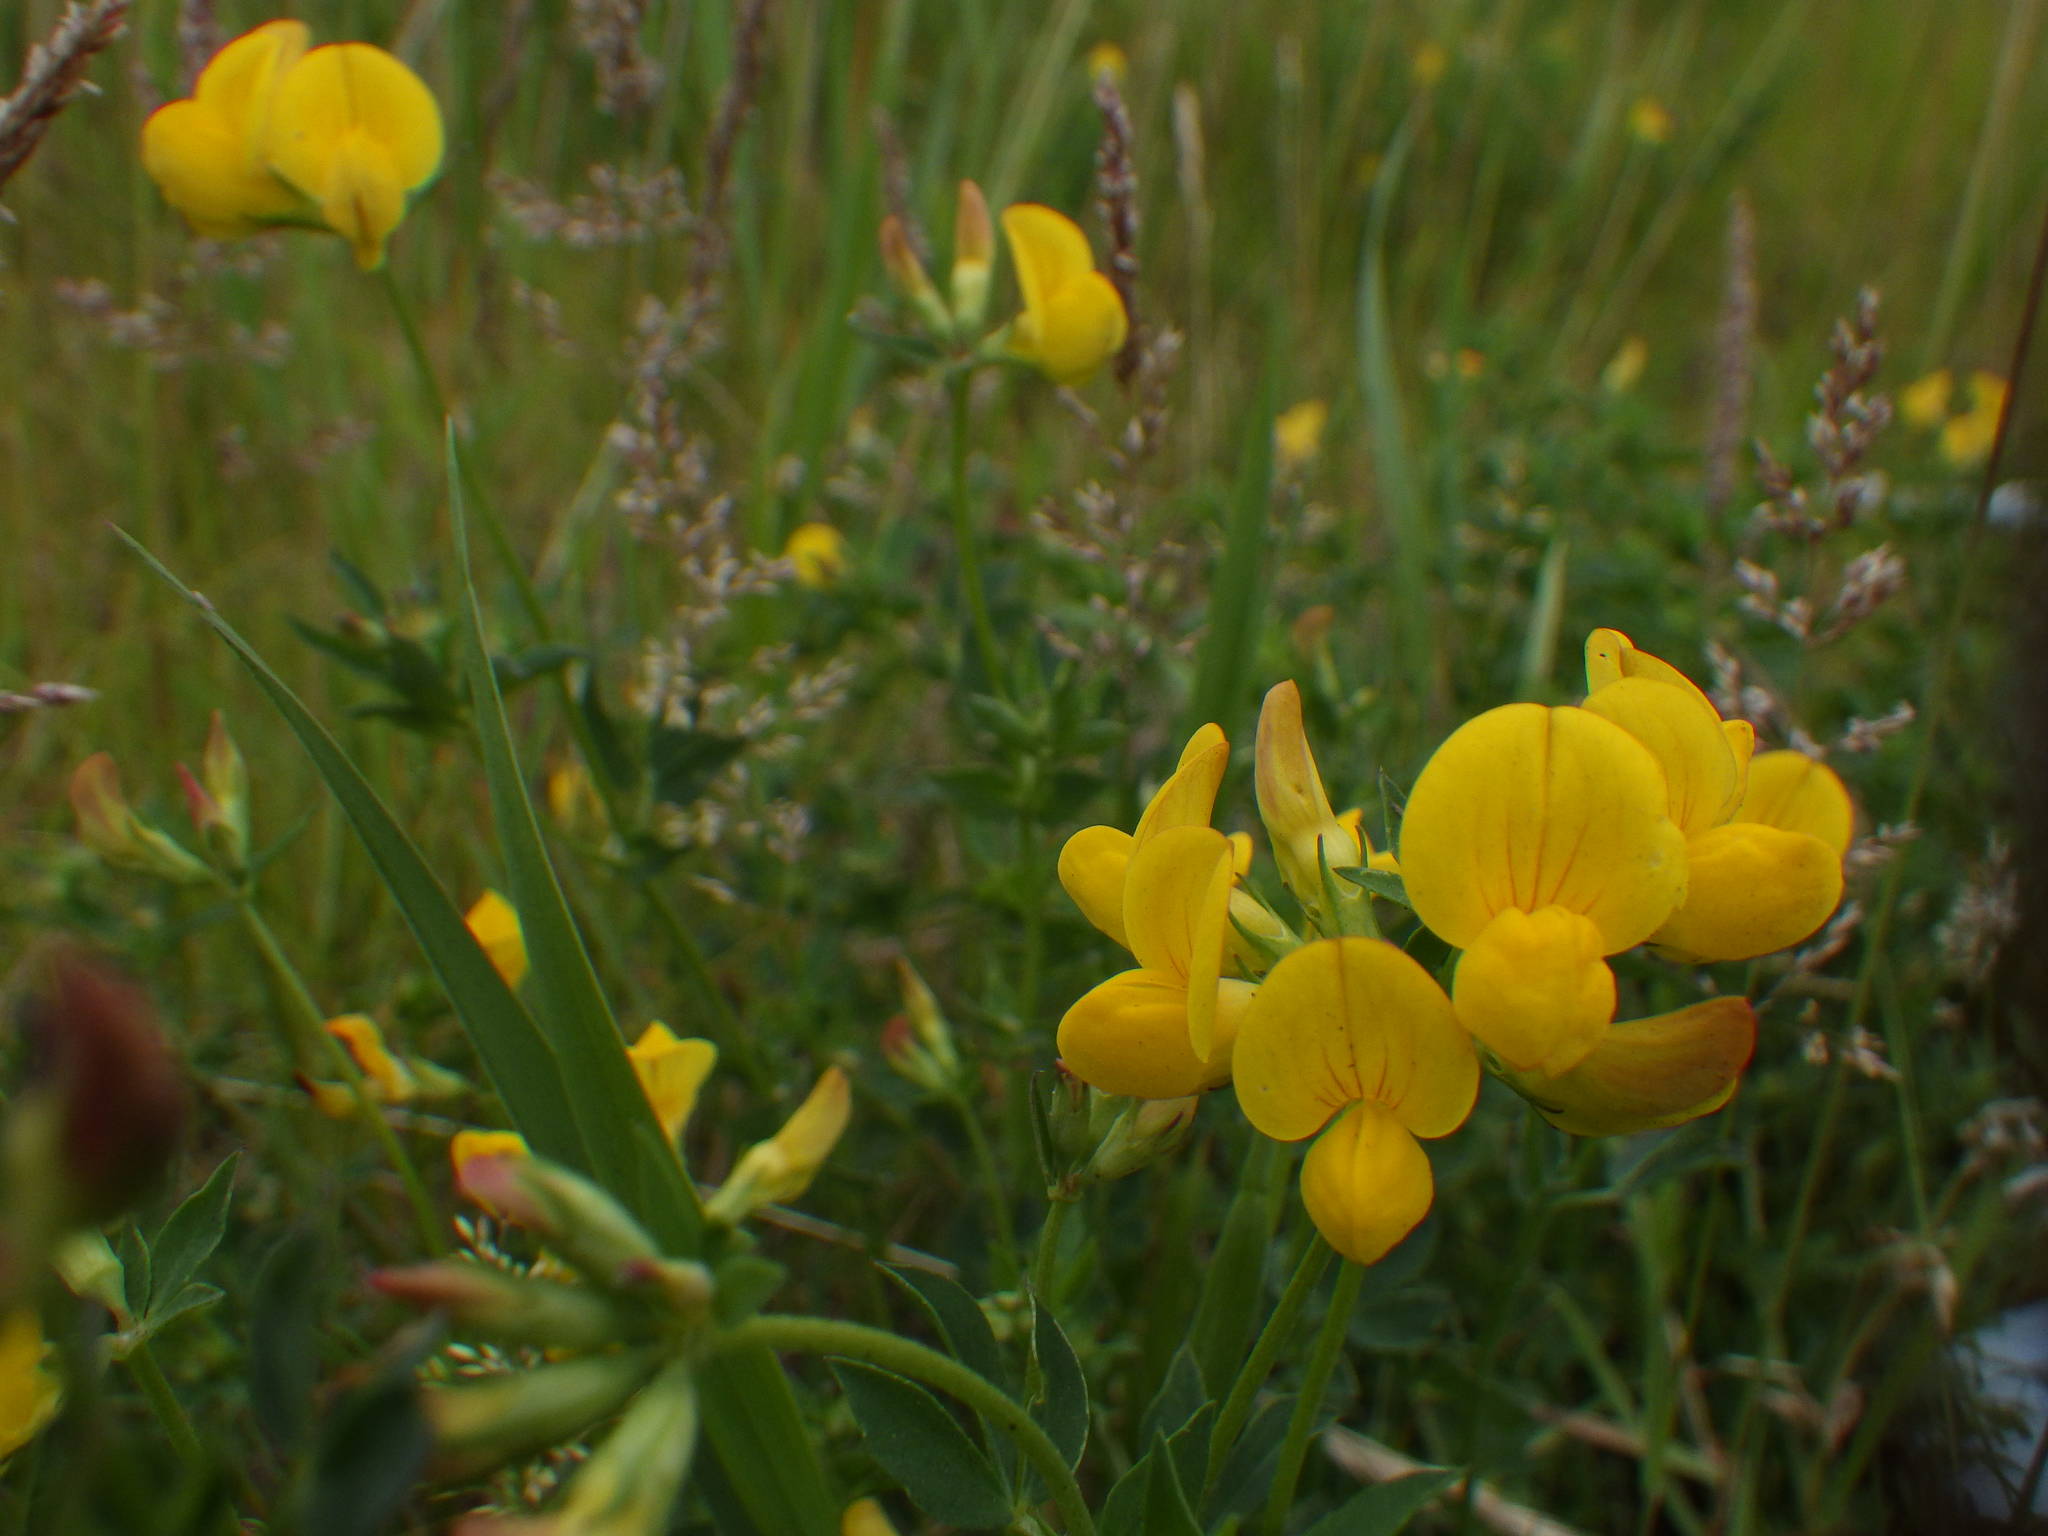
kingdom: Plantae
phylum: Tracheophyta
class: Magnoliopsida
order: Fabales
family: Fabaceae
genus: Lotus
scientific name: Lotus corniculatus
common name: Common bird's-foot-trefoil
